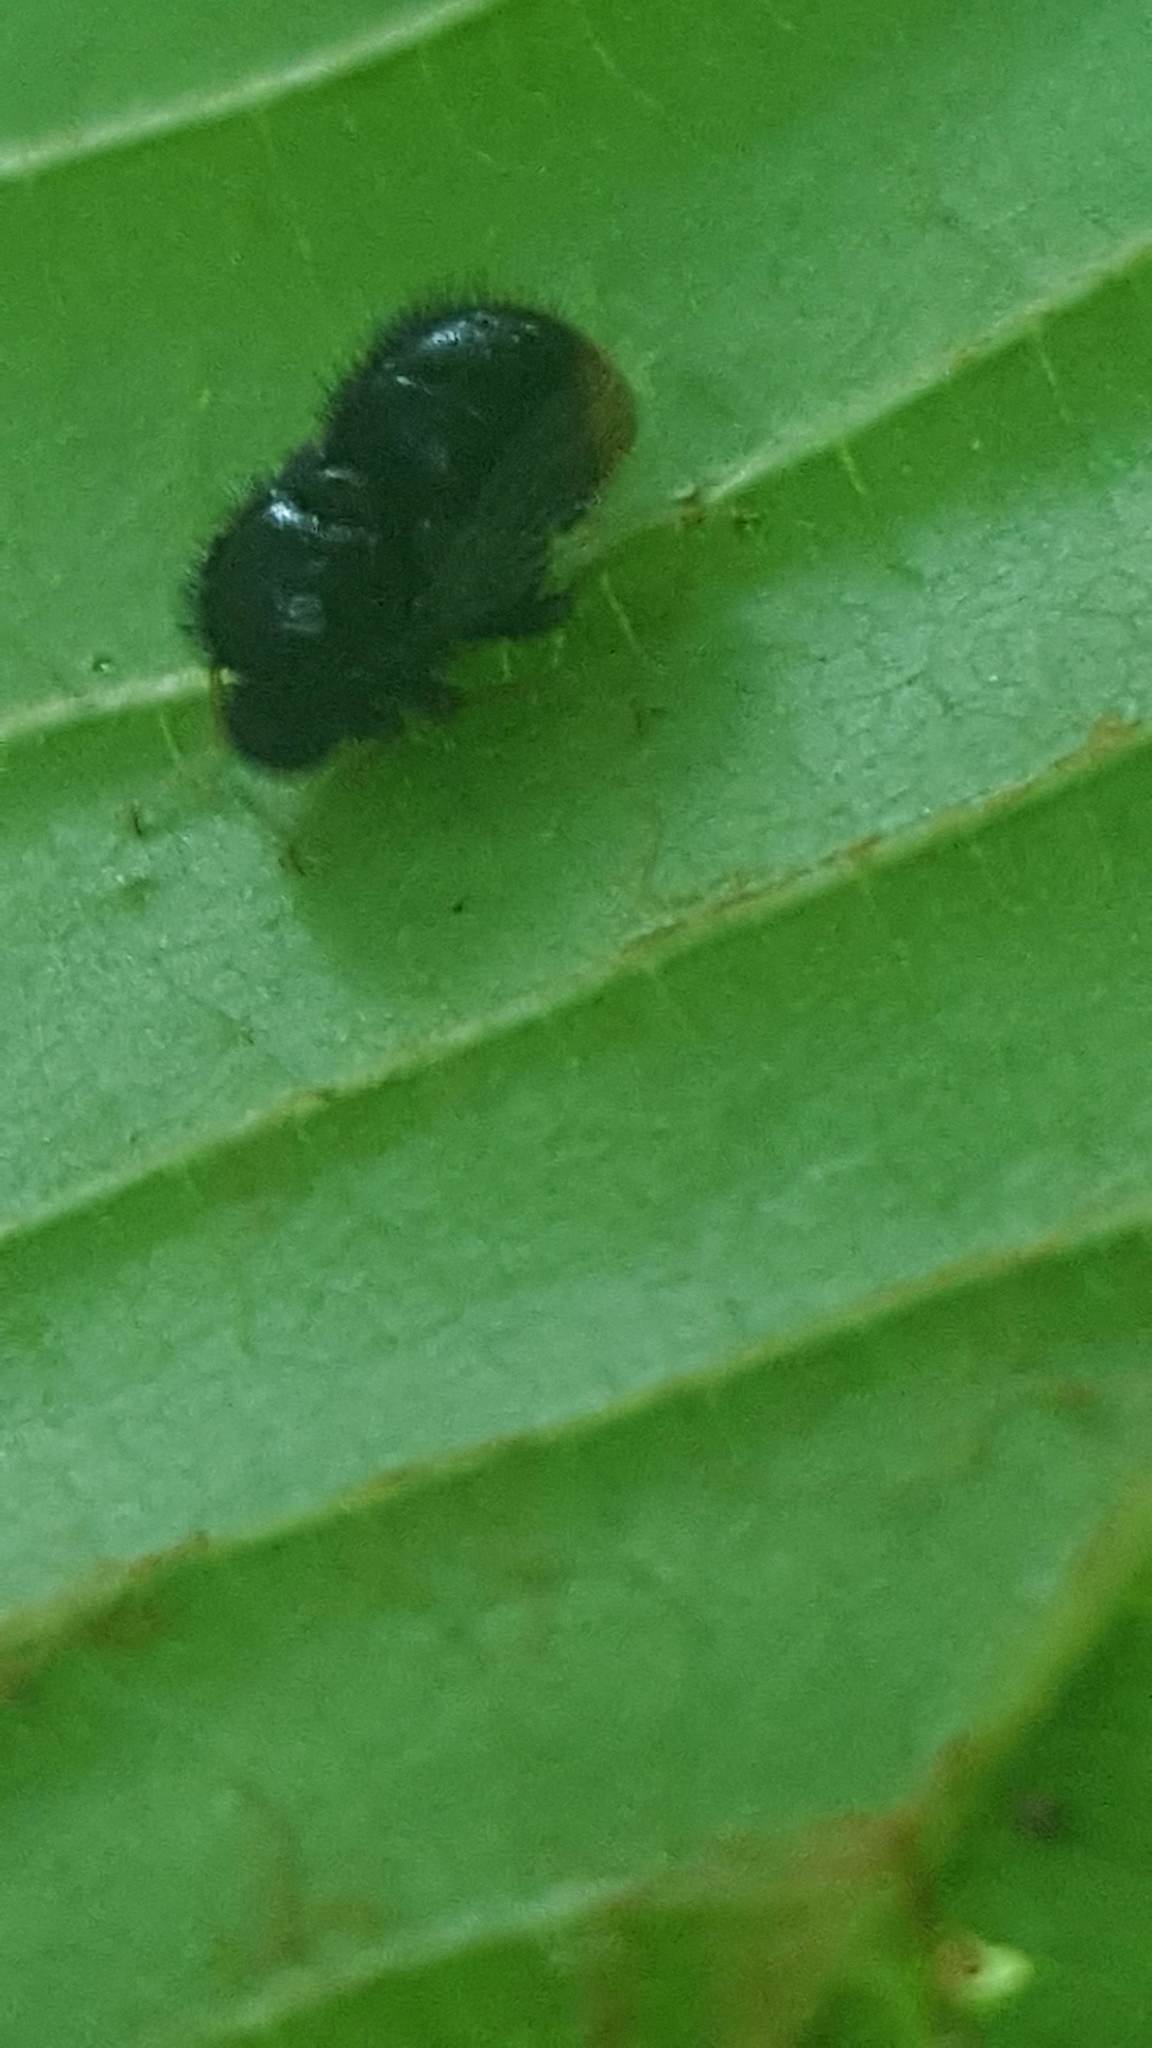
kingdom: Animalia
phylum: Arthropoda
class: Insecta
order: Diptera
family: Acroceridae
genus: Pterodontia
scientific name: Pterodontia westwoodi
